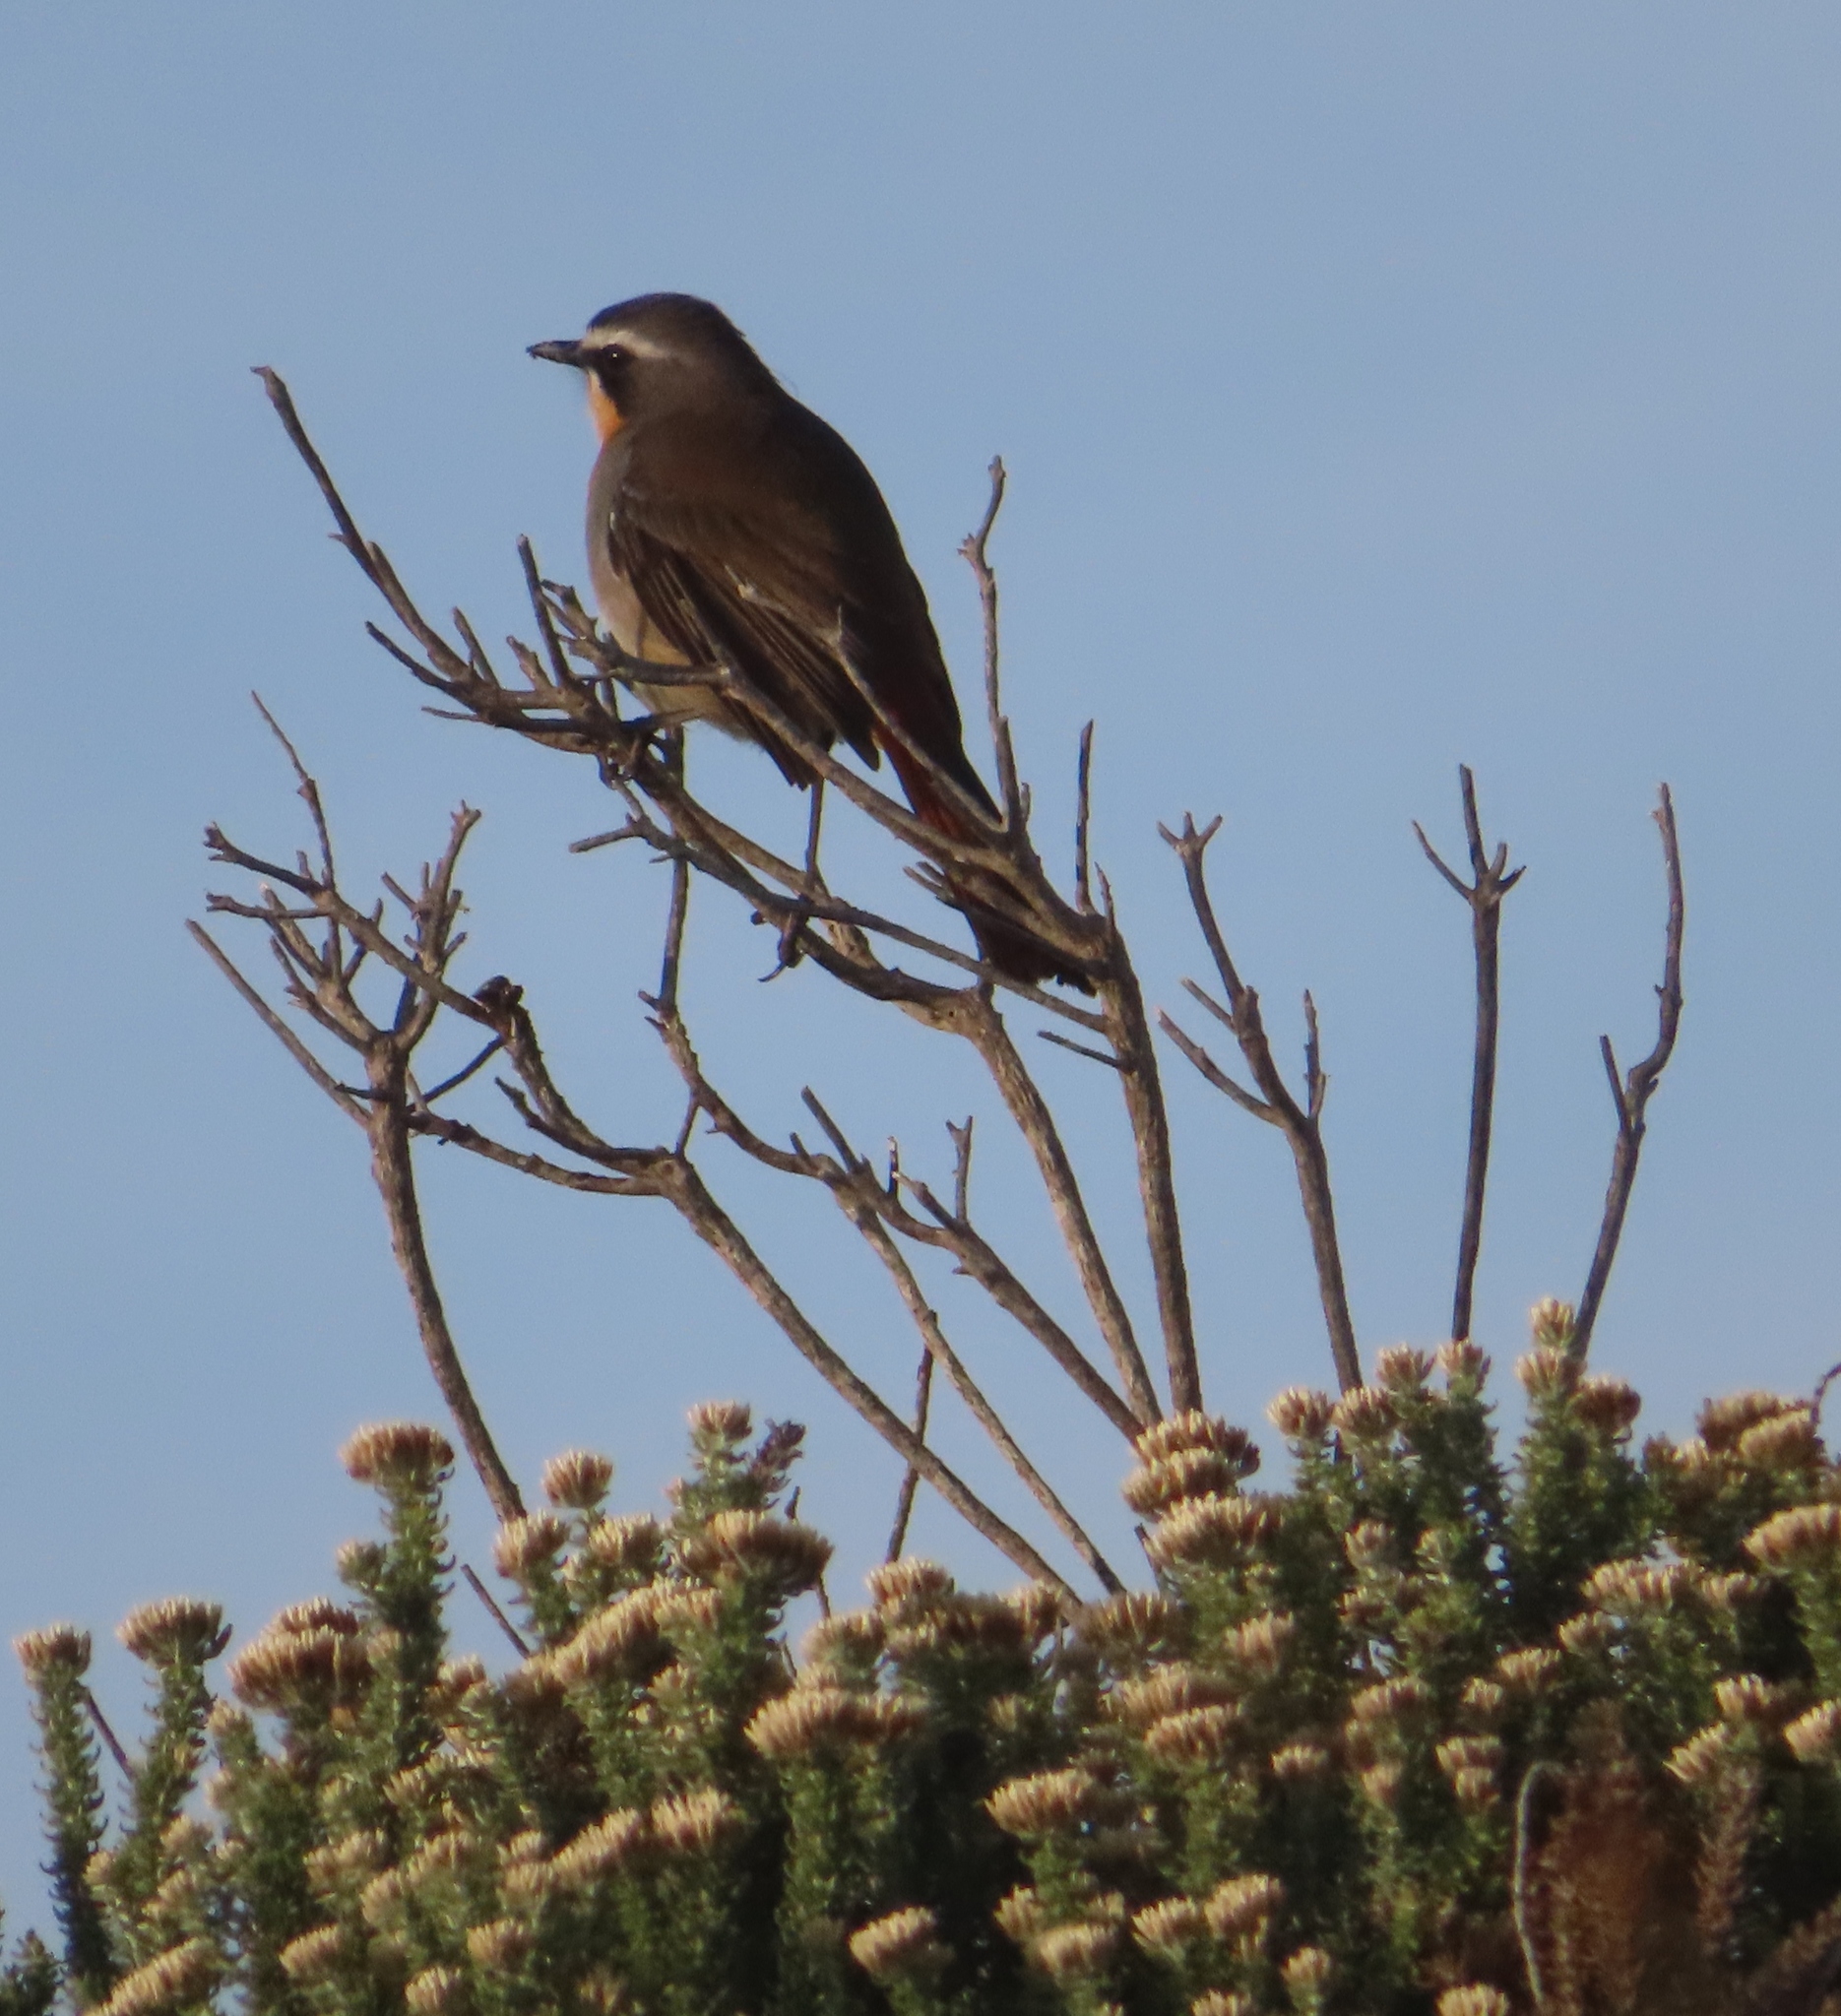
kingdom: Animalia
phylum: Chordata
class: Aves
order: Passeriformes
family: Muscicapidae
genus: Cossypha
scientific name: Cossypha caffra
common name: Cape robin-chat
